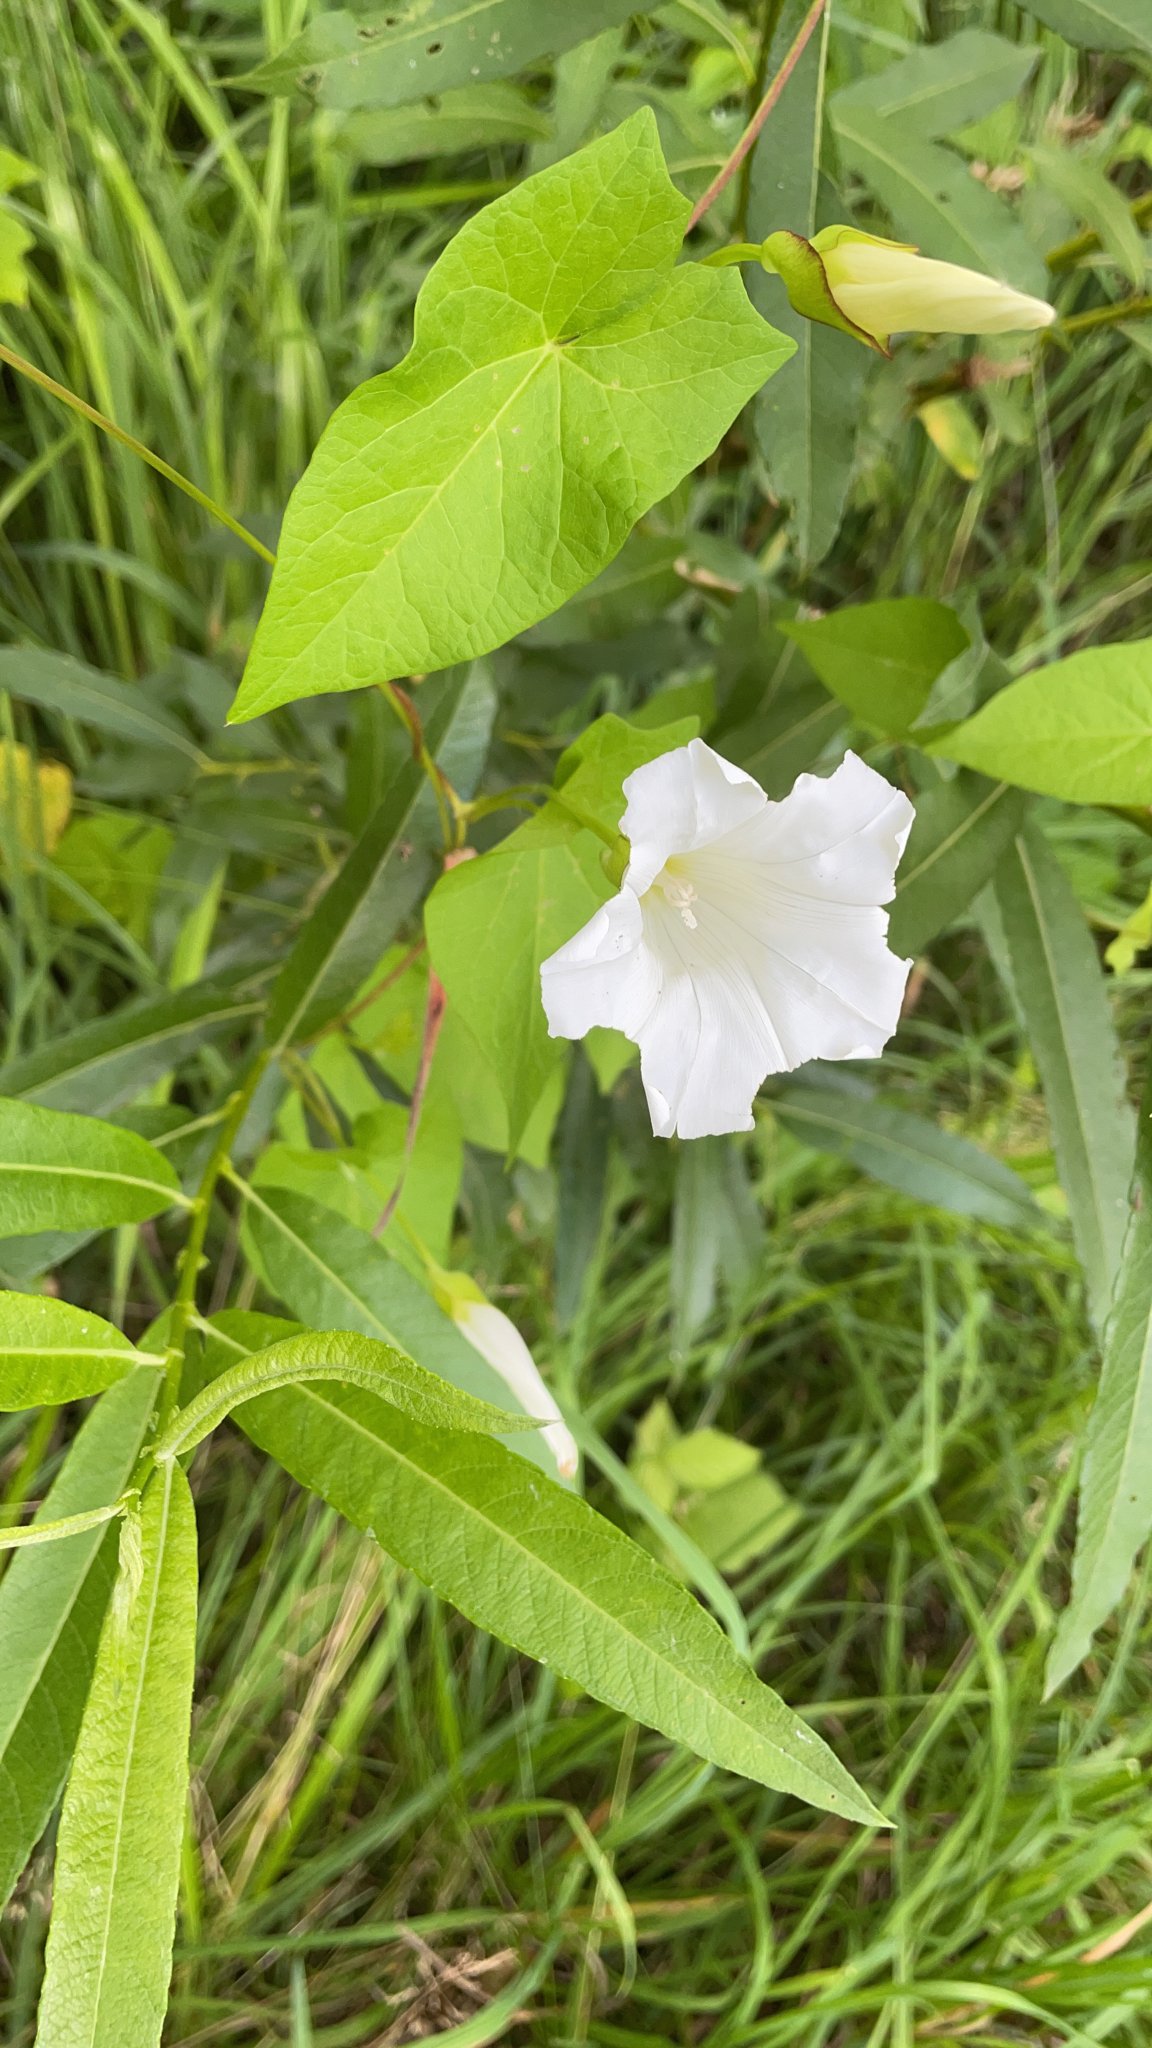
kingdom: Plantae
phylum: Tracheophyta
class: Magnoliopsida
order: Solanales
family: Convolvulaceae
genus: Calystegia
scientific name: Calystegia sepium
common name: Hedge bindweed
